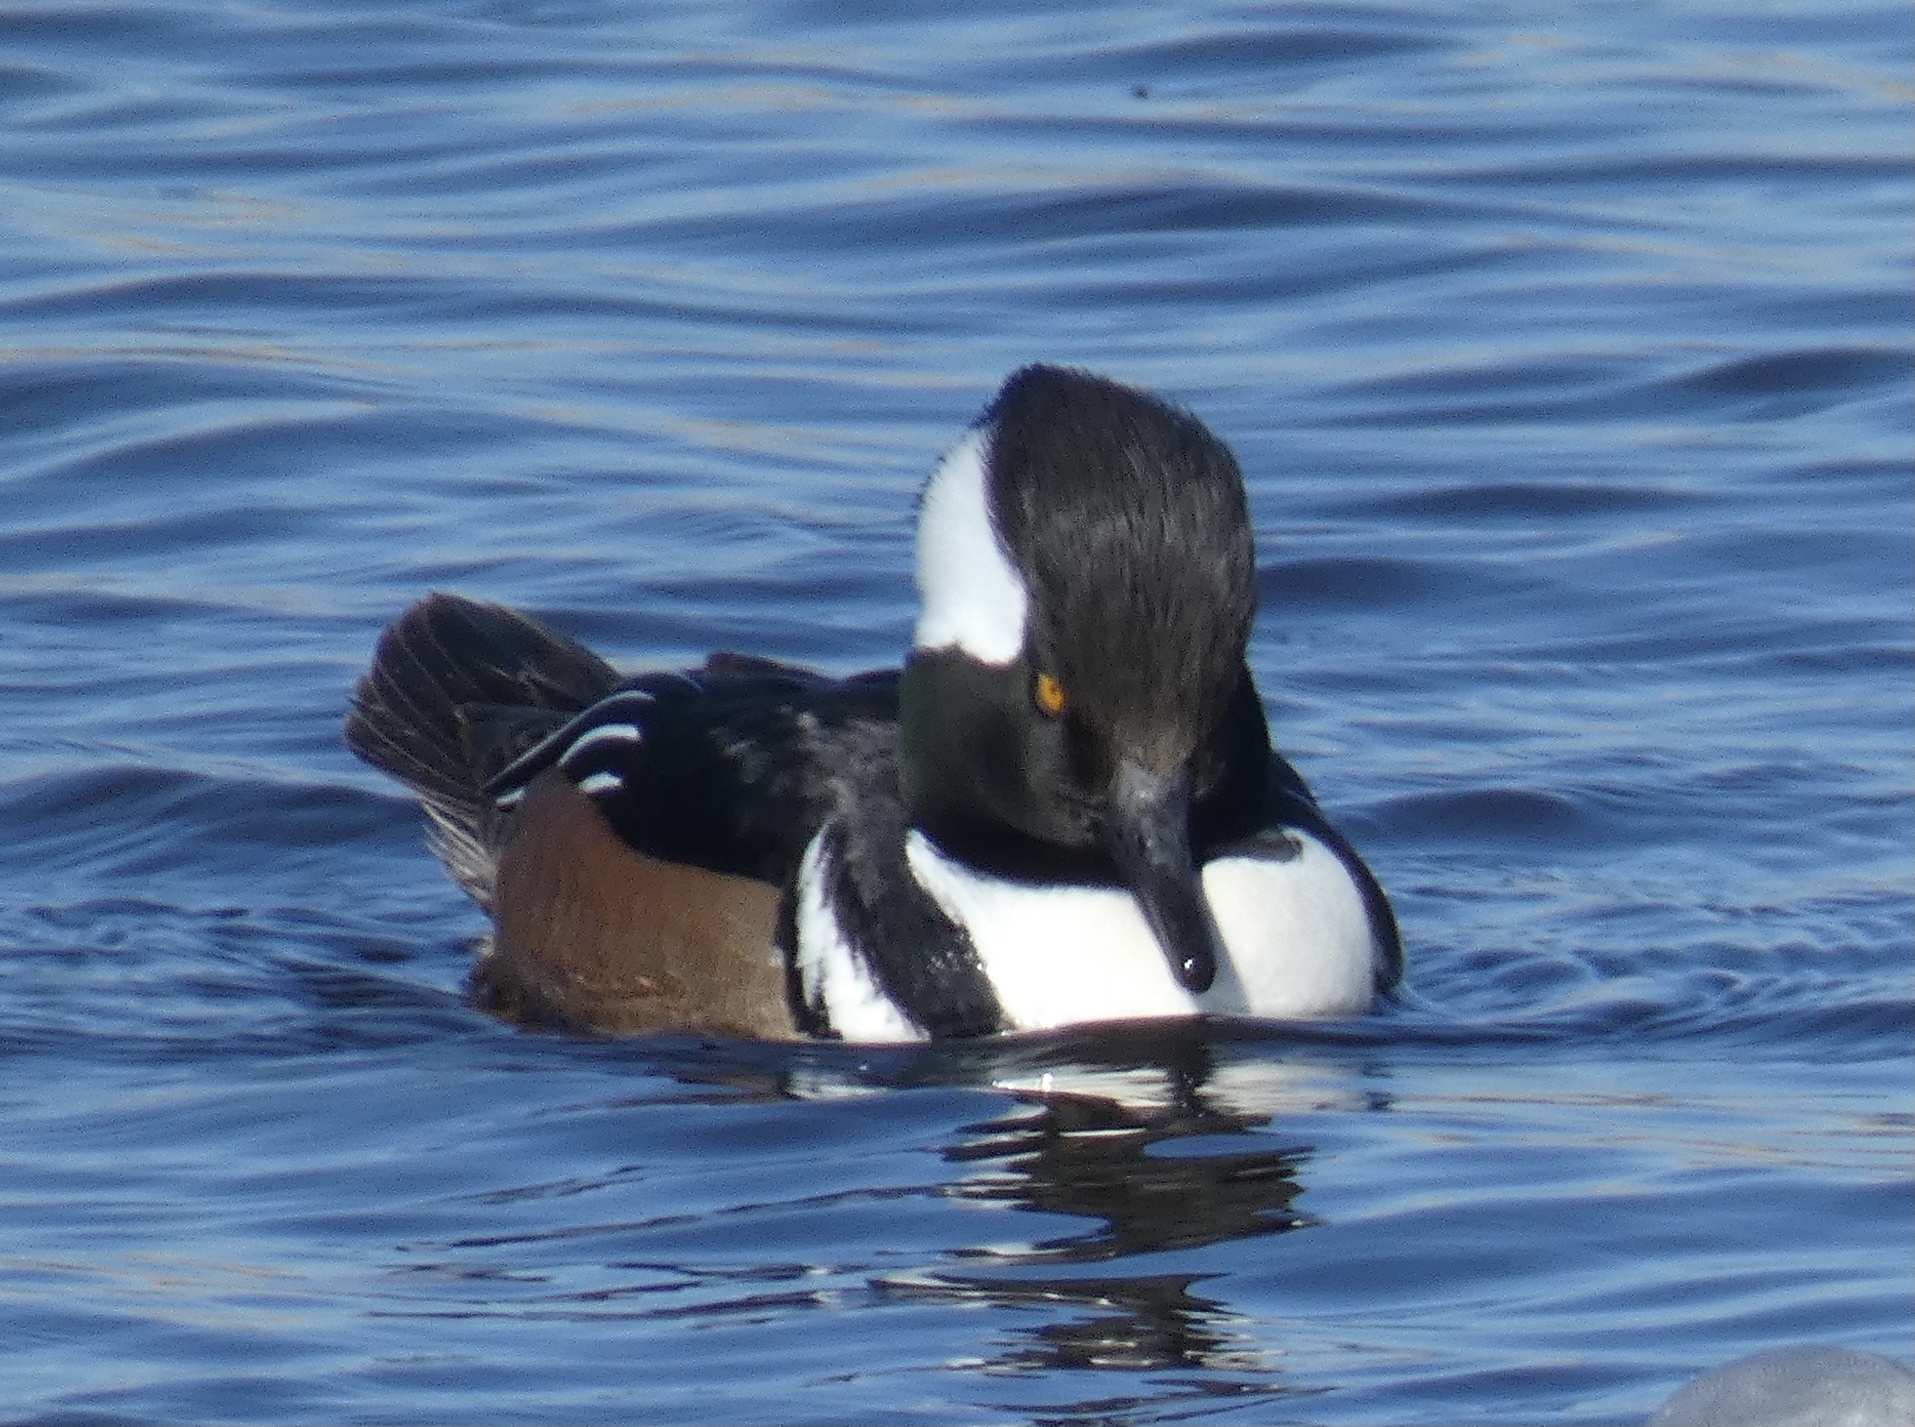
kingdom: Animalia
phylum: Chordata
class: Aves
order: Anseriformes
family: Anatidae
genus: Lophodytes
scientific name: Lophodytes cucullatus
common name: Hooded merganser
